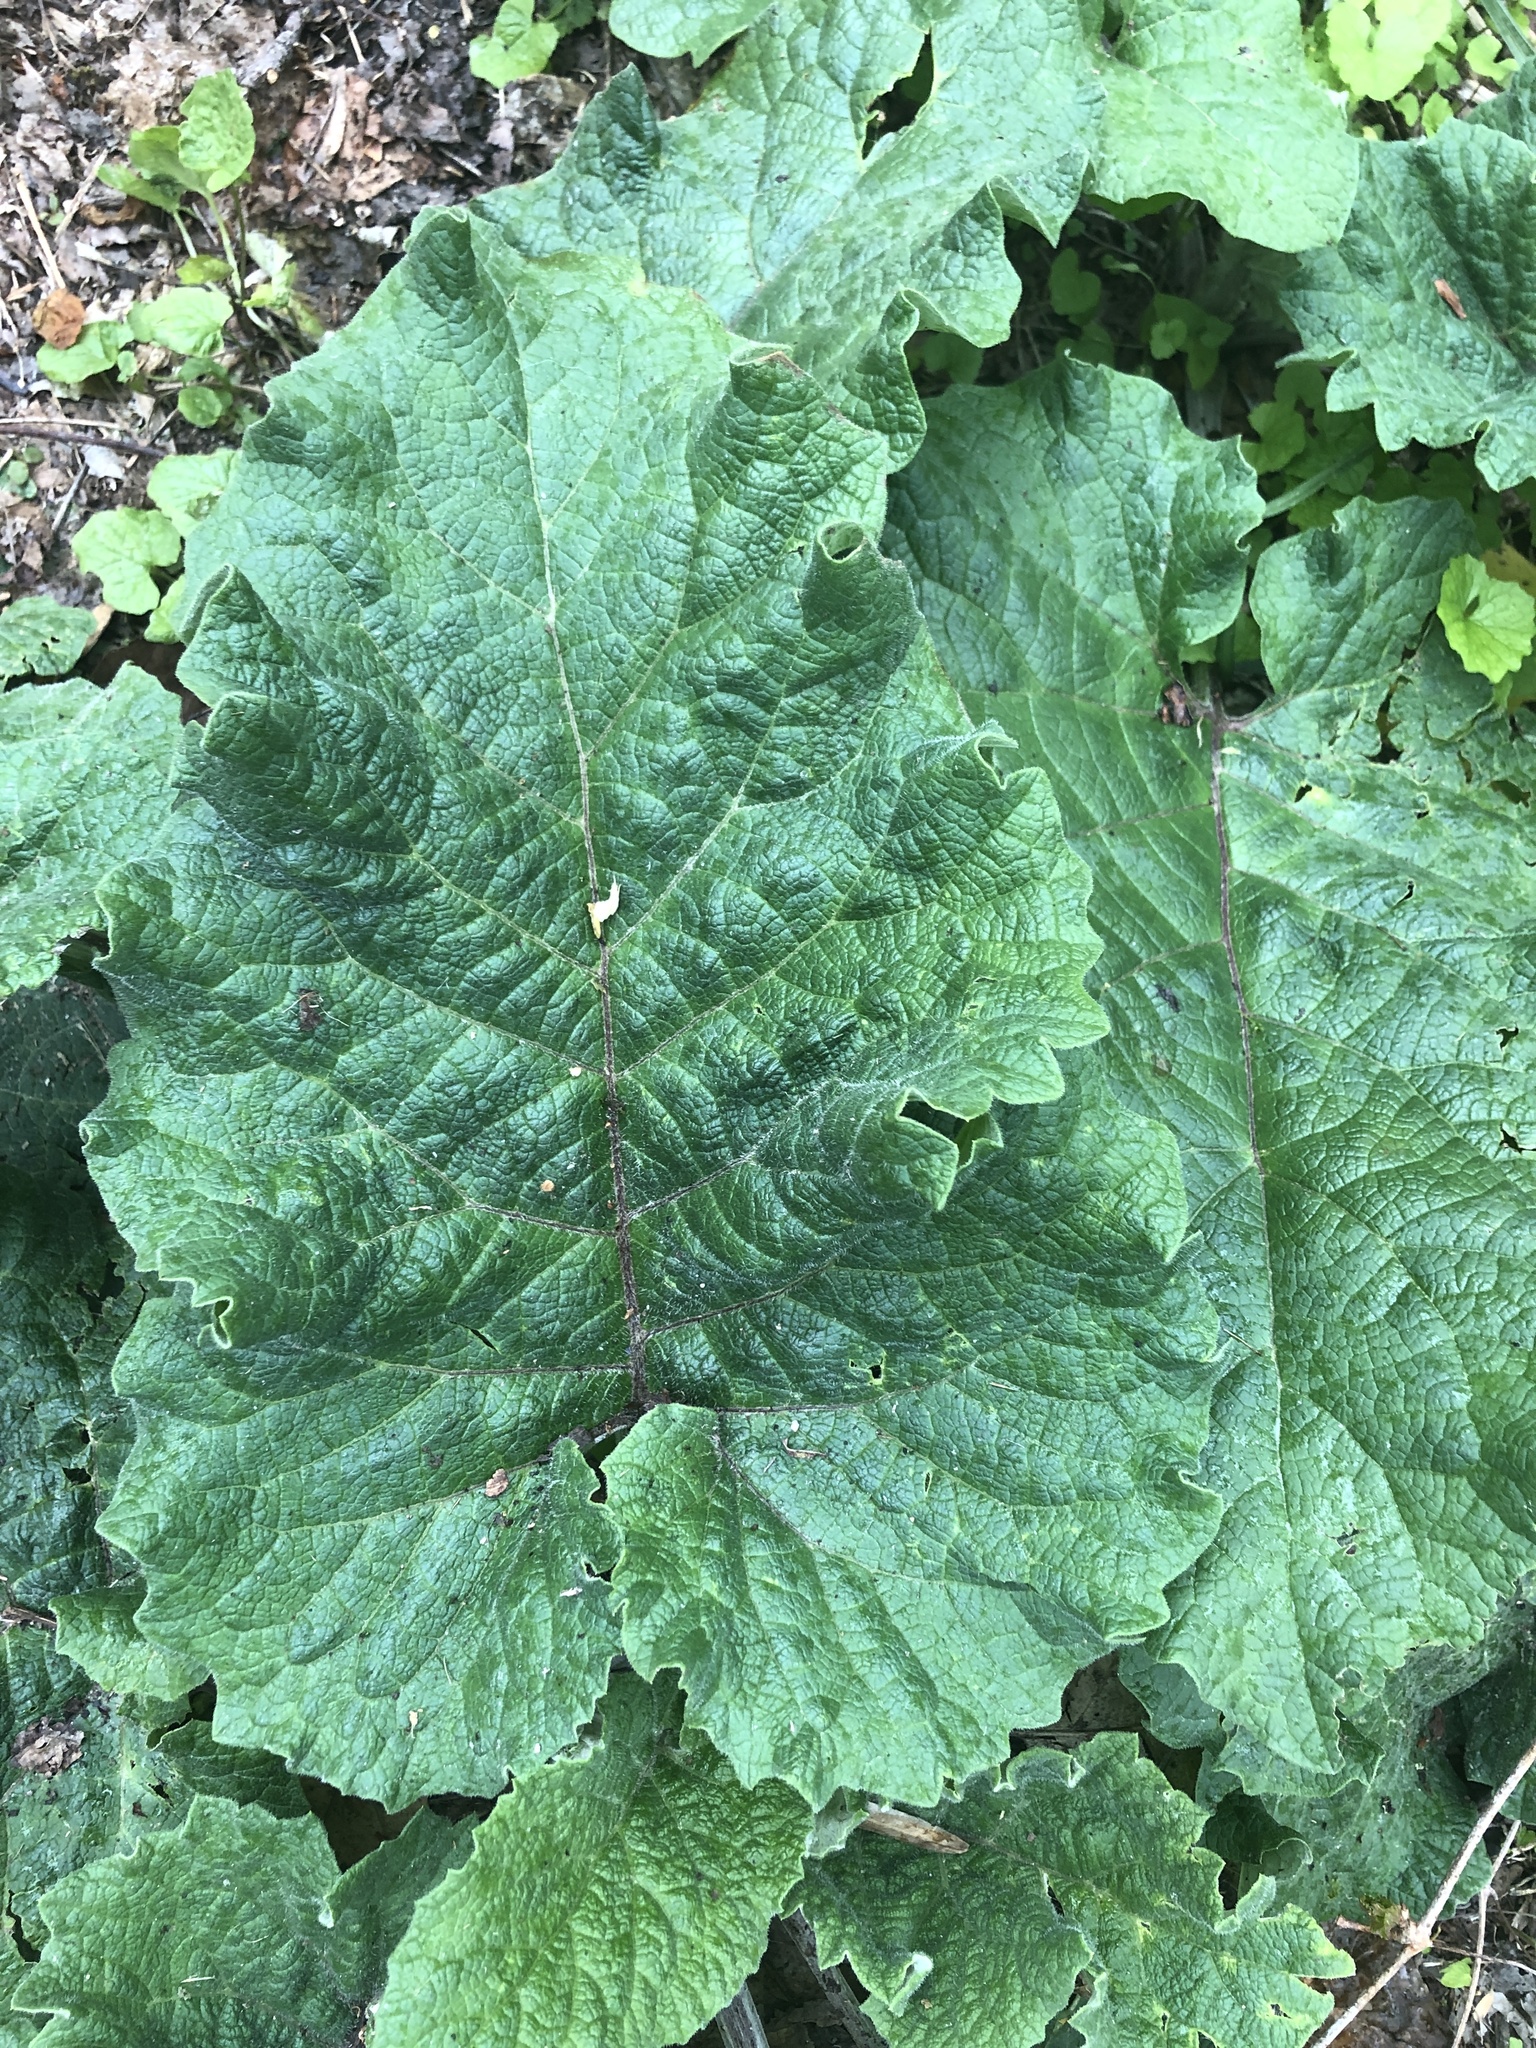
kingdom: Plantae
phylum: Tracheophyta
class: Magnoliopsida
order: Asterales
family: Asteraceae
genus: Arctium
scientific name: Arctium
